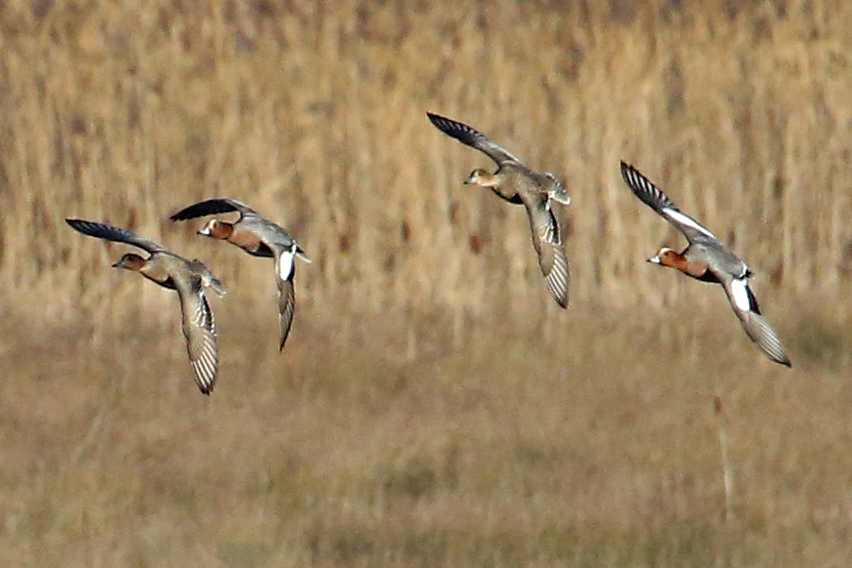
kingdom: Animalia
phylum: Chordata
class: Aves
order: Anseriformes
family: Anatidae
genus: Mareca
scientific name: Mareca penelope
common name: Eurasian wigeon
